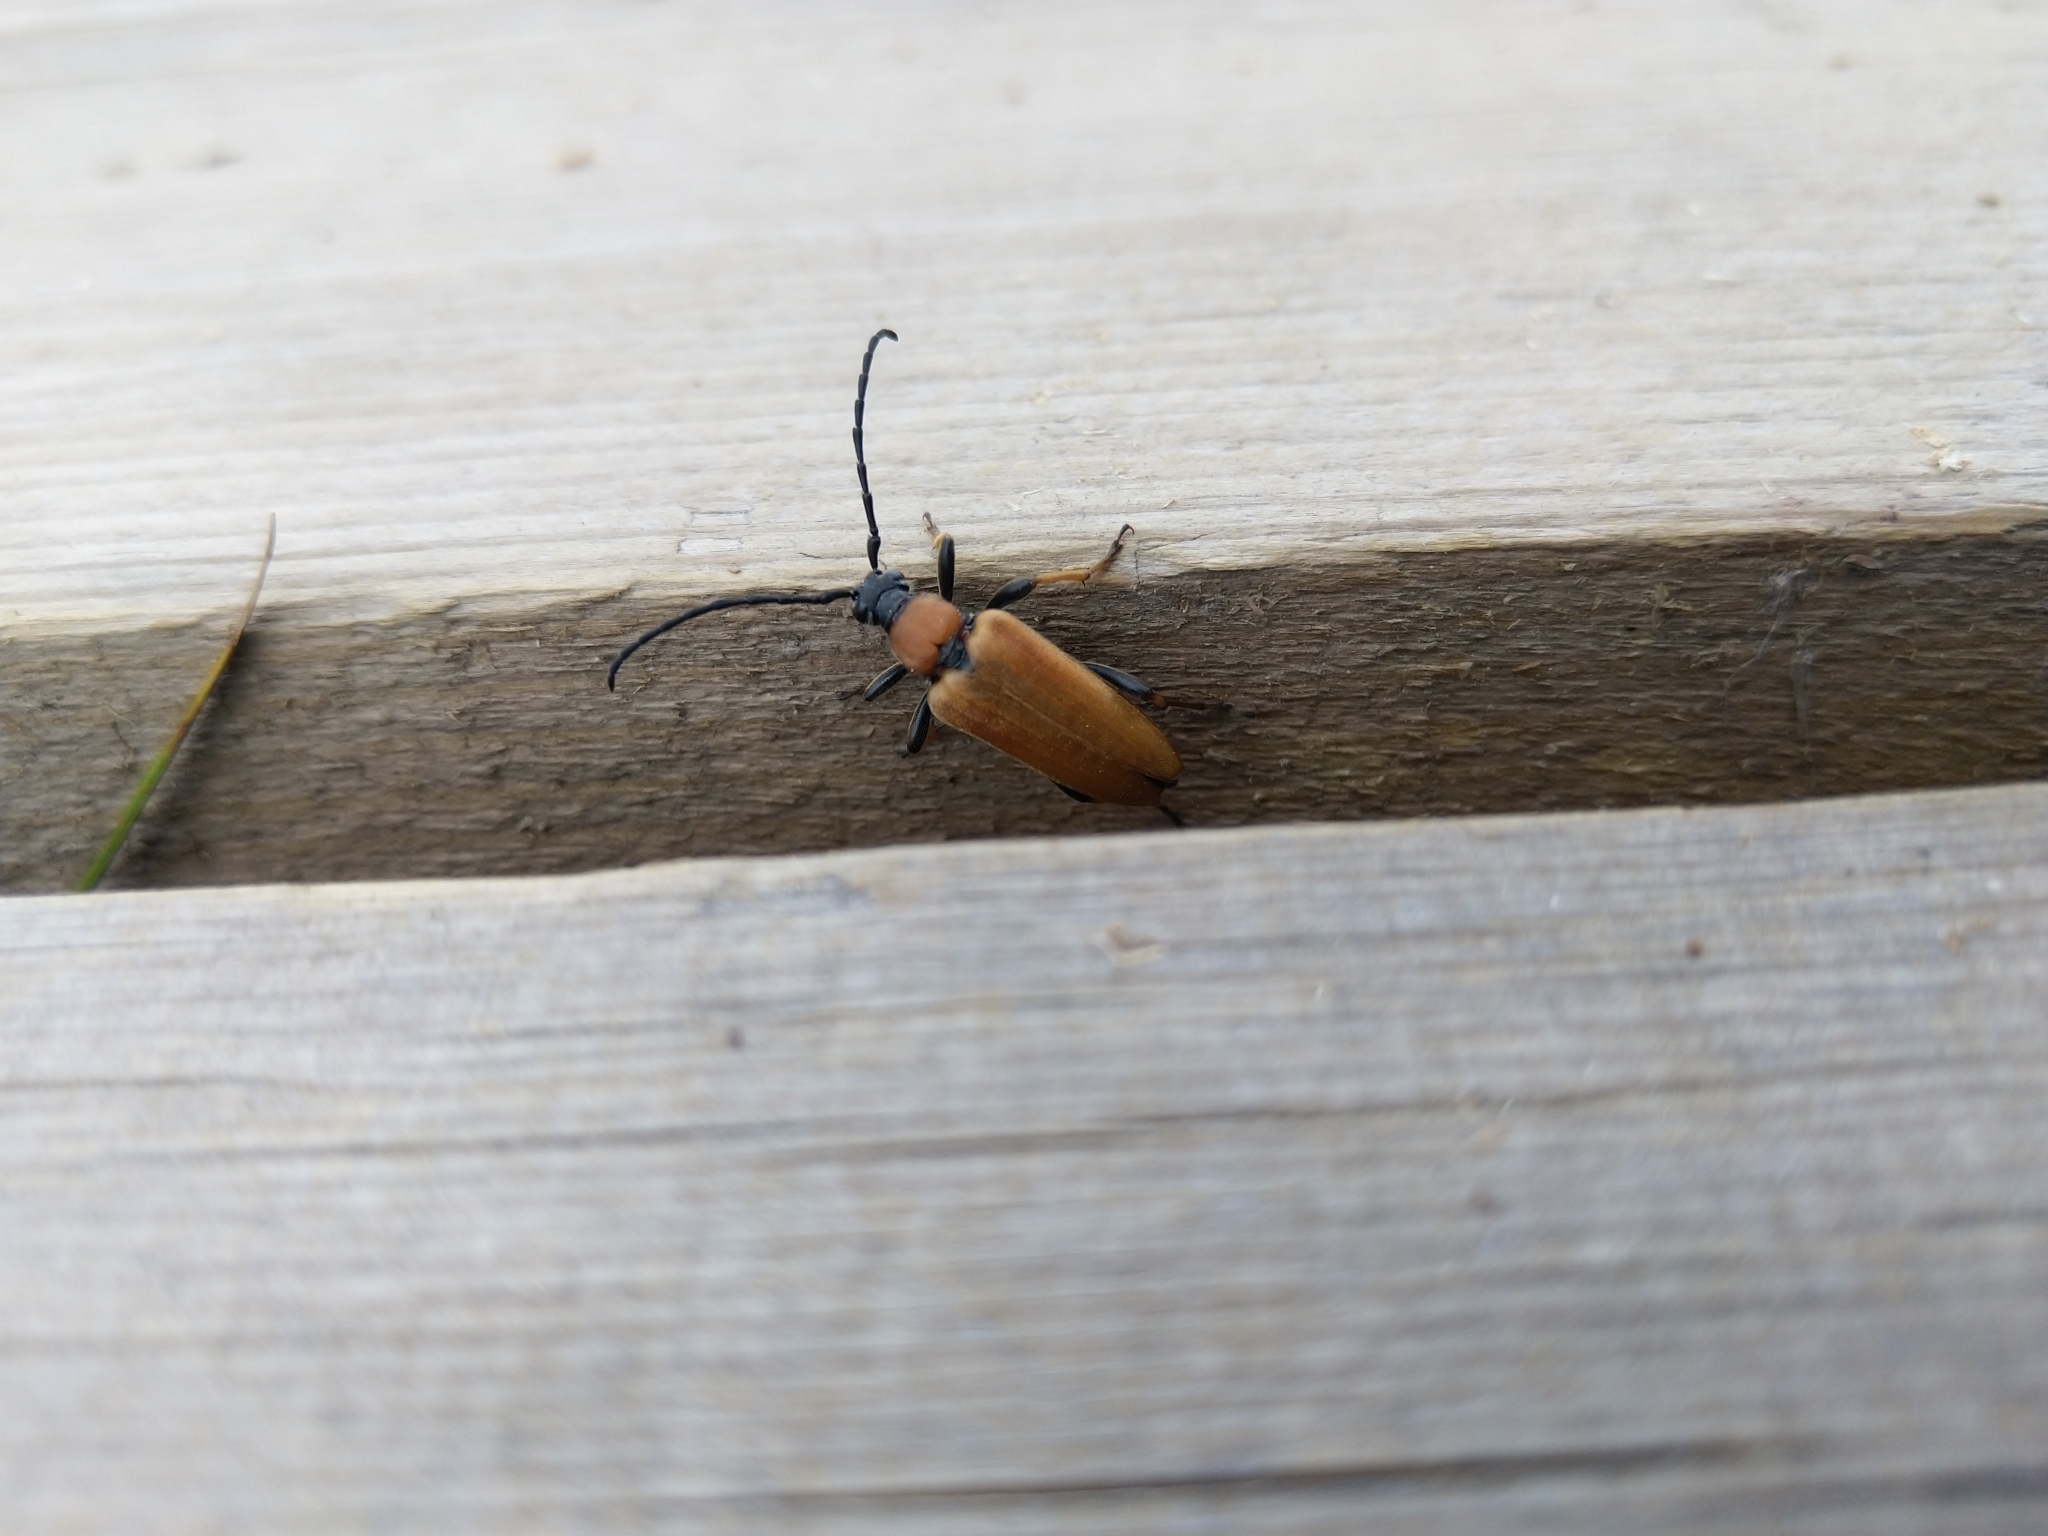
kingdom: Animalia
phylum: Arthropoda
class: Insecta
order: Coleoptera
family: Cerambycidae
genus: Stictoleptura
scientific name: Stictoleptura rubra
